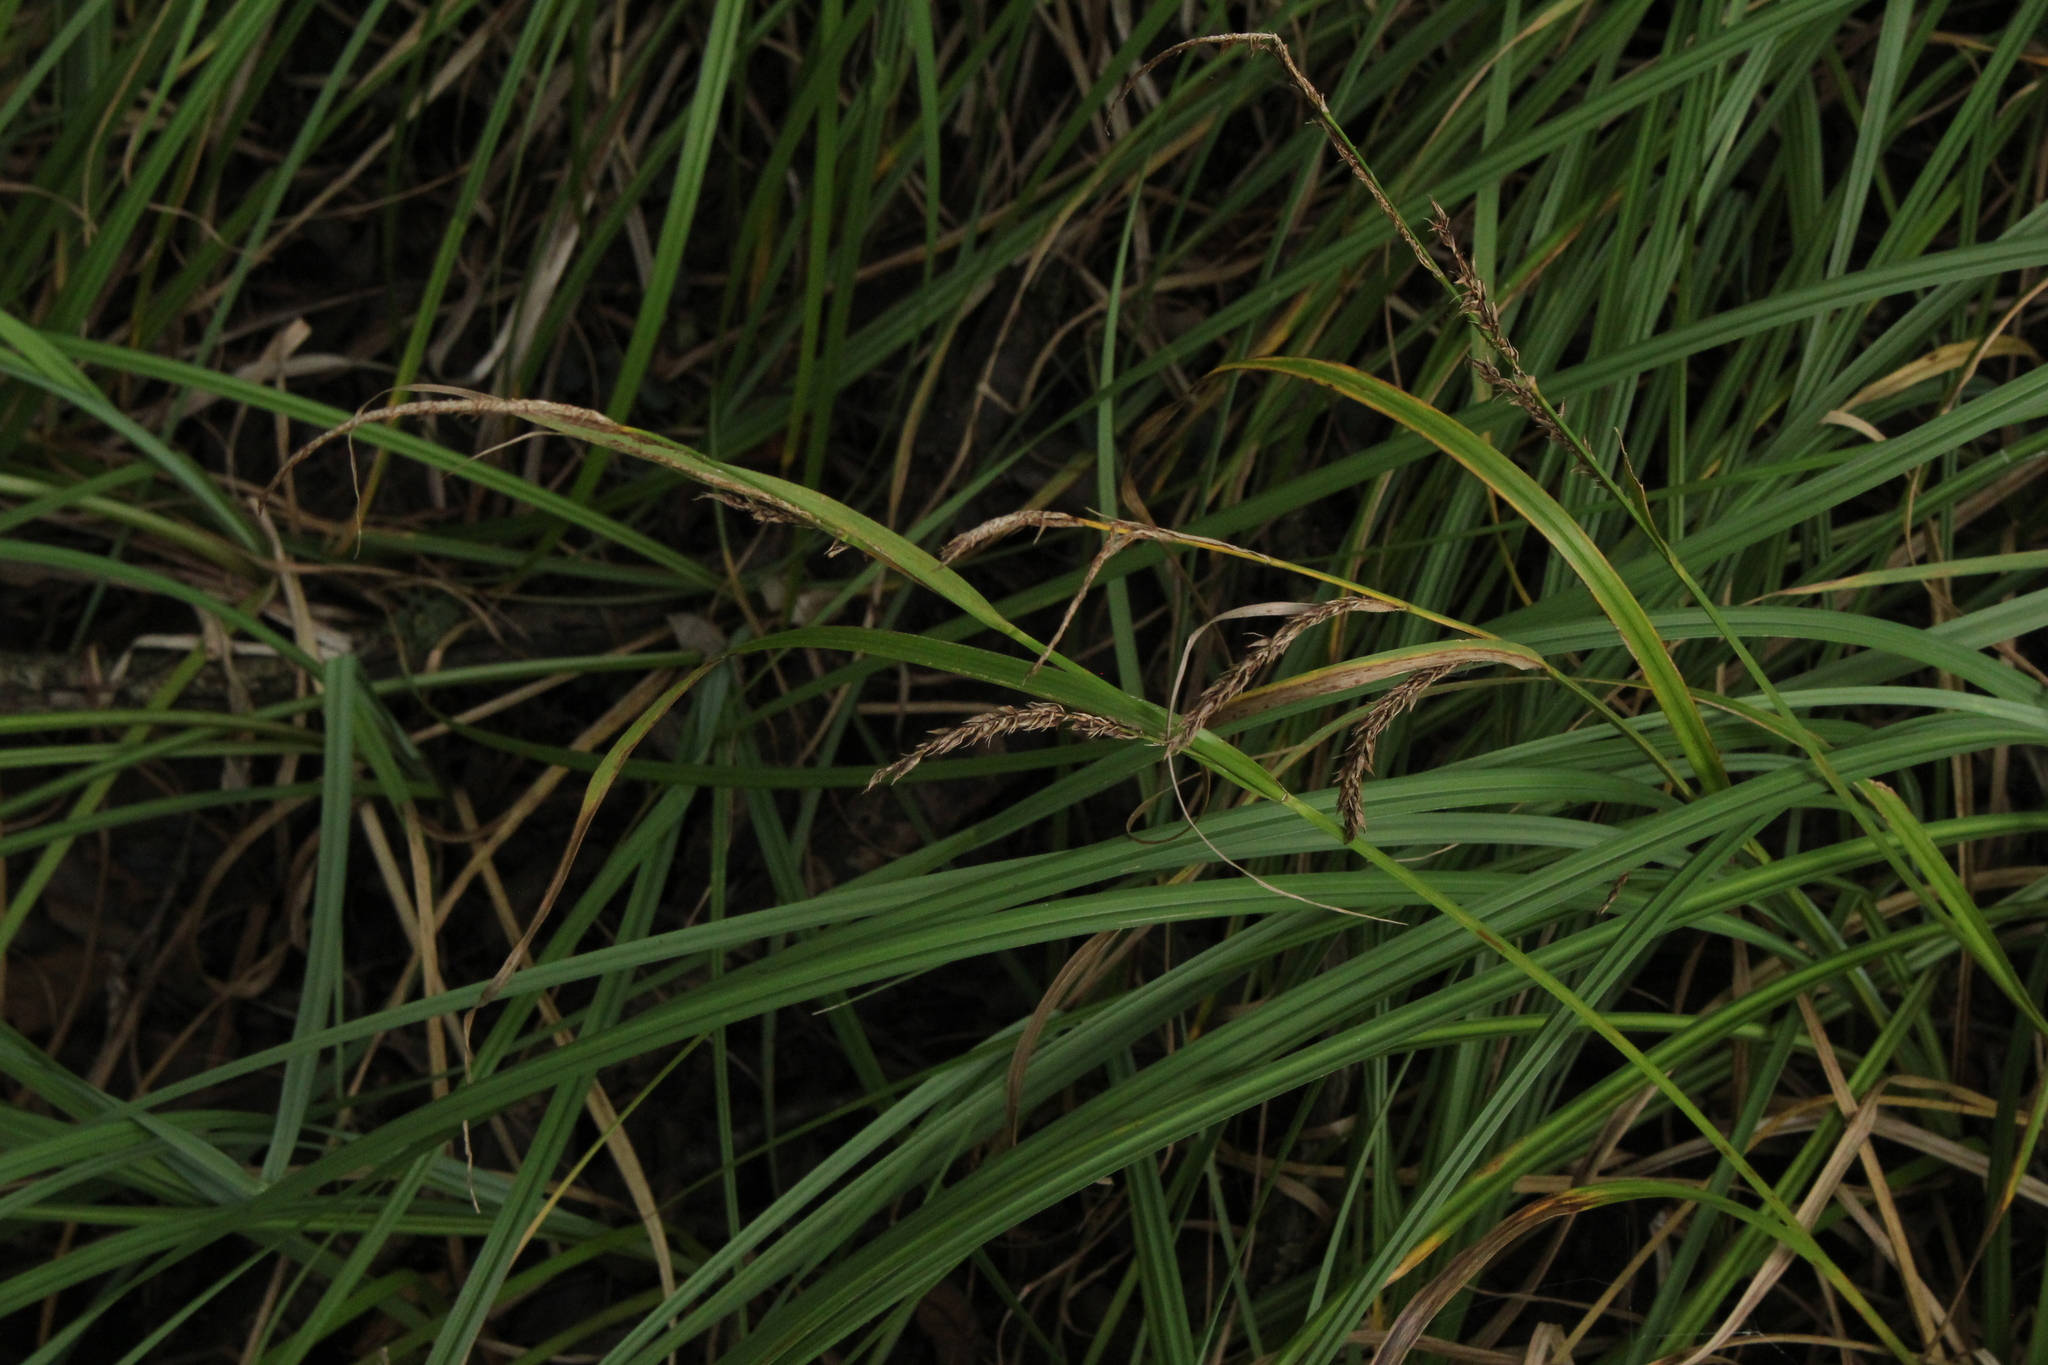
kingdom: Plantae
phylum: Tracheophyta
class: Liliopsida
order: Poales
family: Cyperaceae
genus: Carex
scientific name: Carex hyalinolepis
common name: Shoreline sedge
